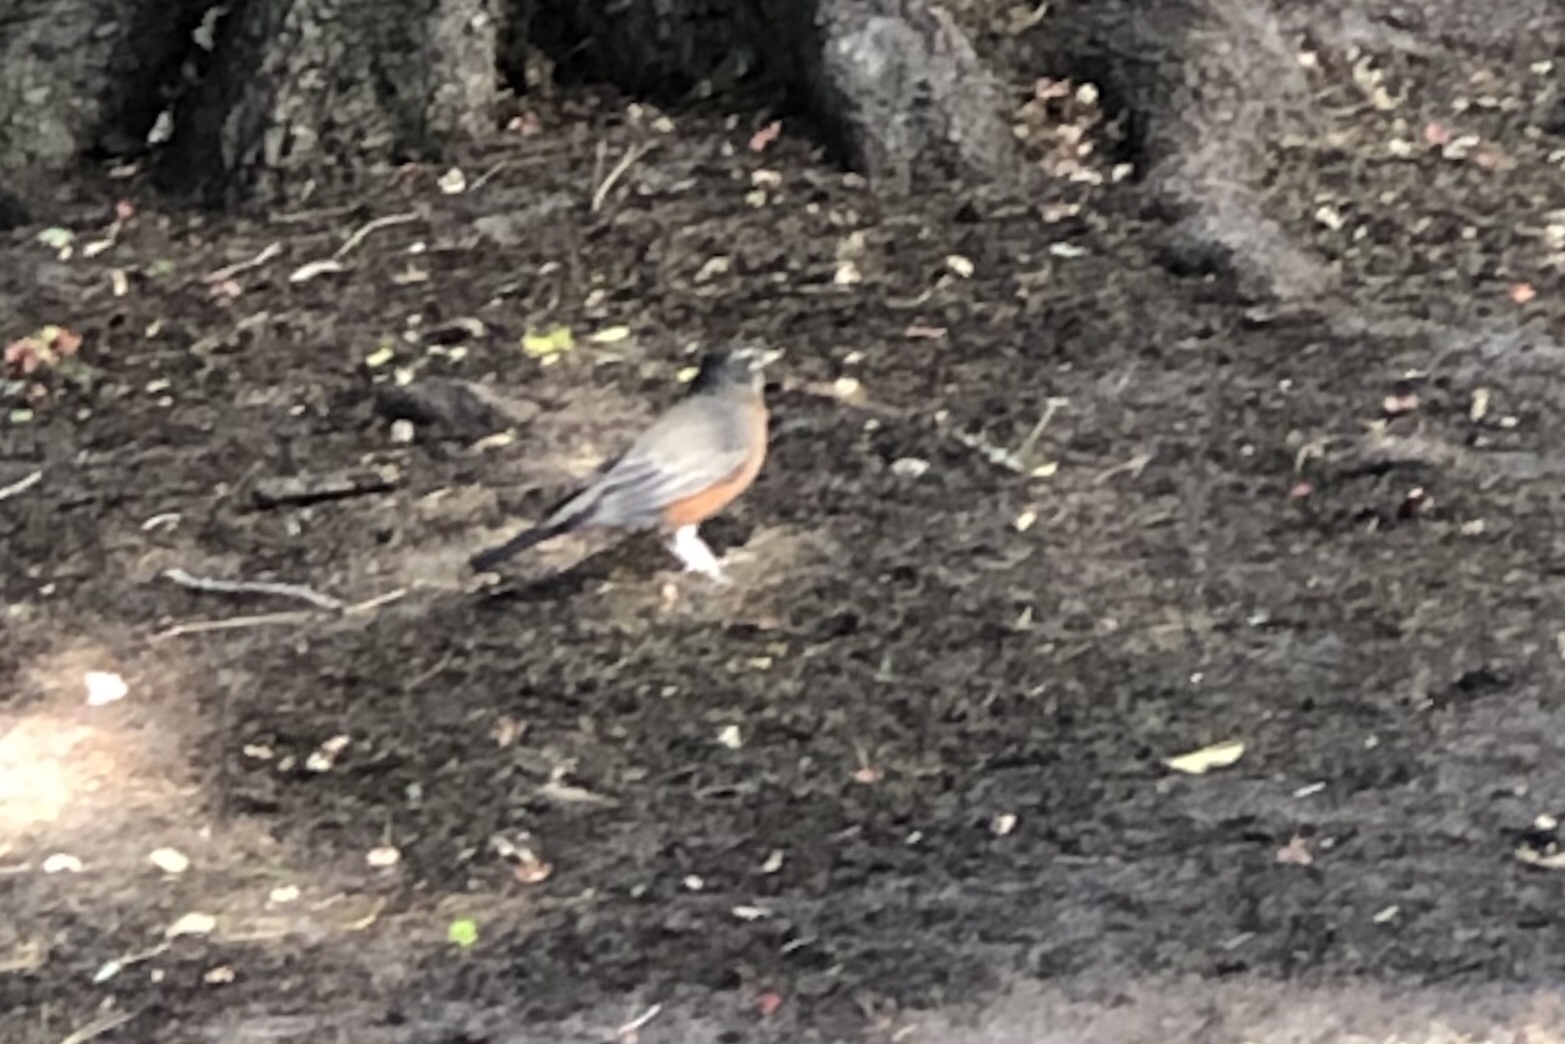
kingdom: Animalia
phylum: Chordata
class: Aves
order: Passeriformes
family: Turdidae
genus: Turdus
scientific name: Turdus migratorius
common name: American robin
